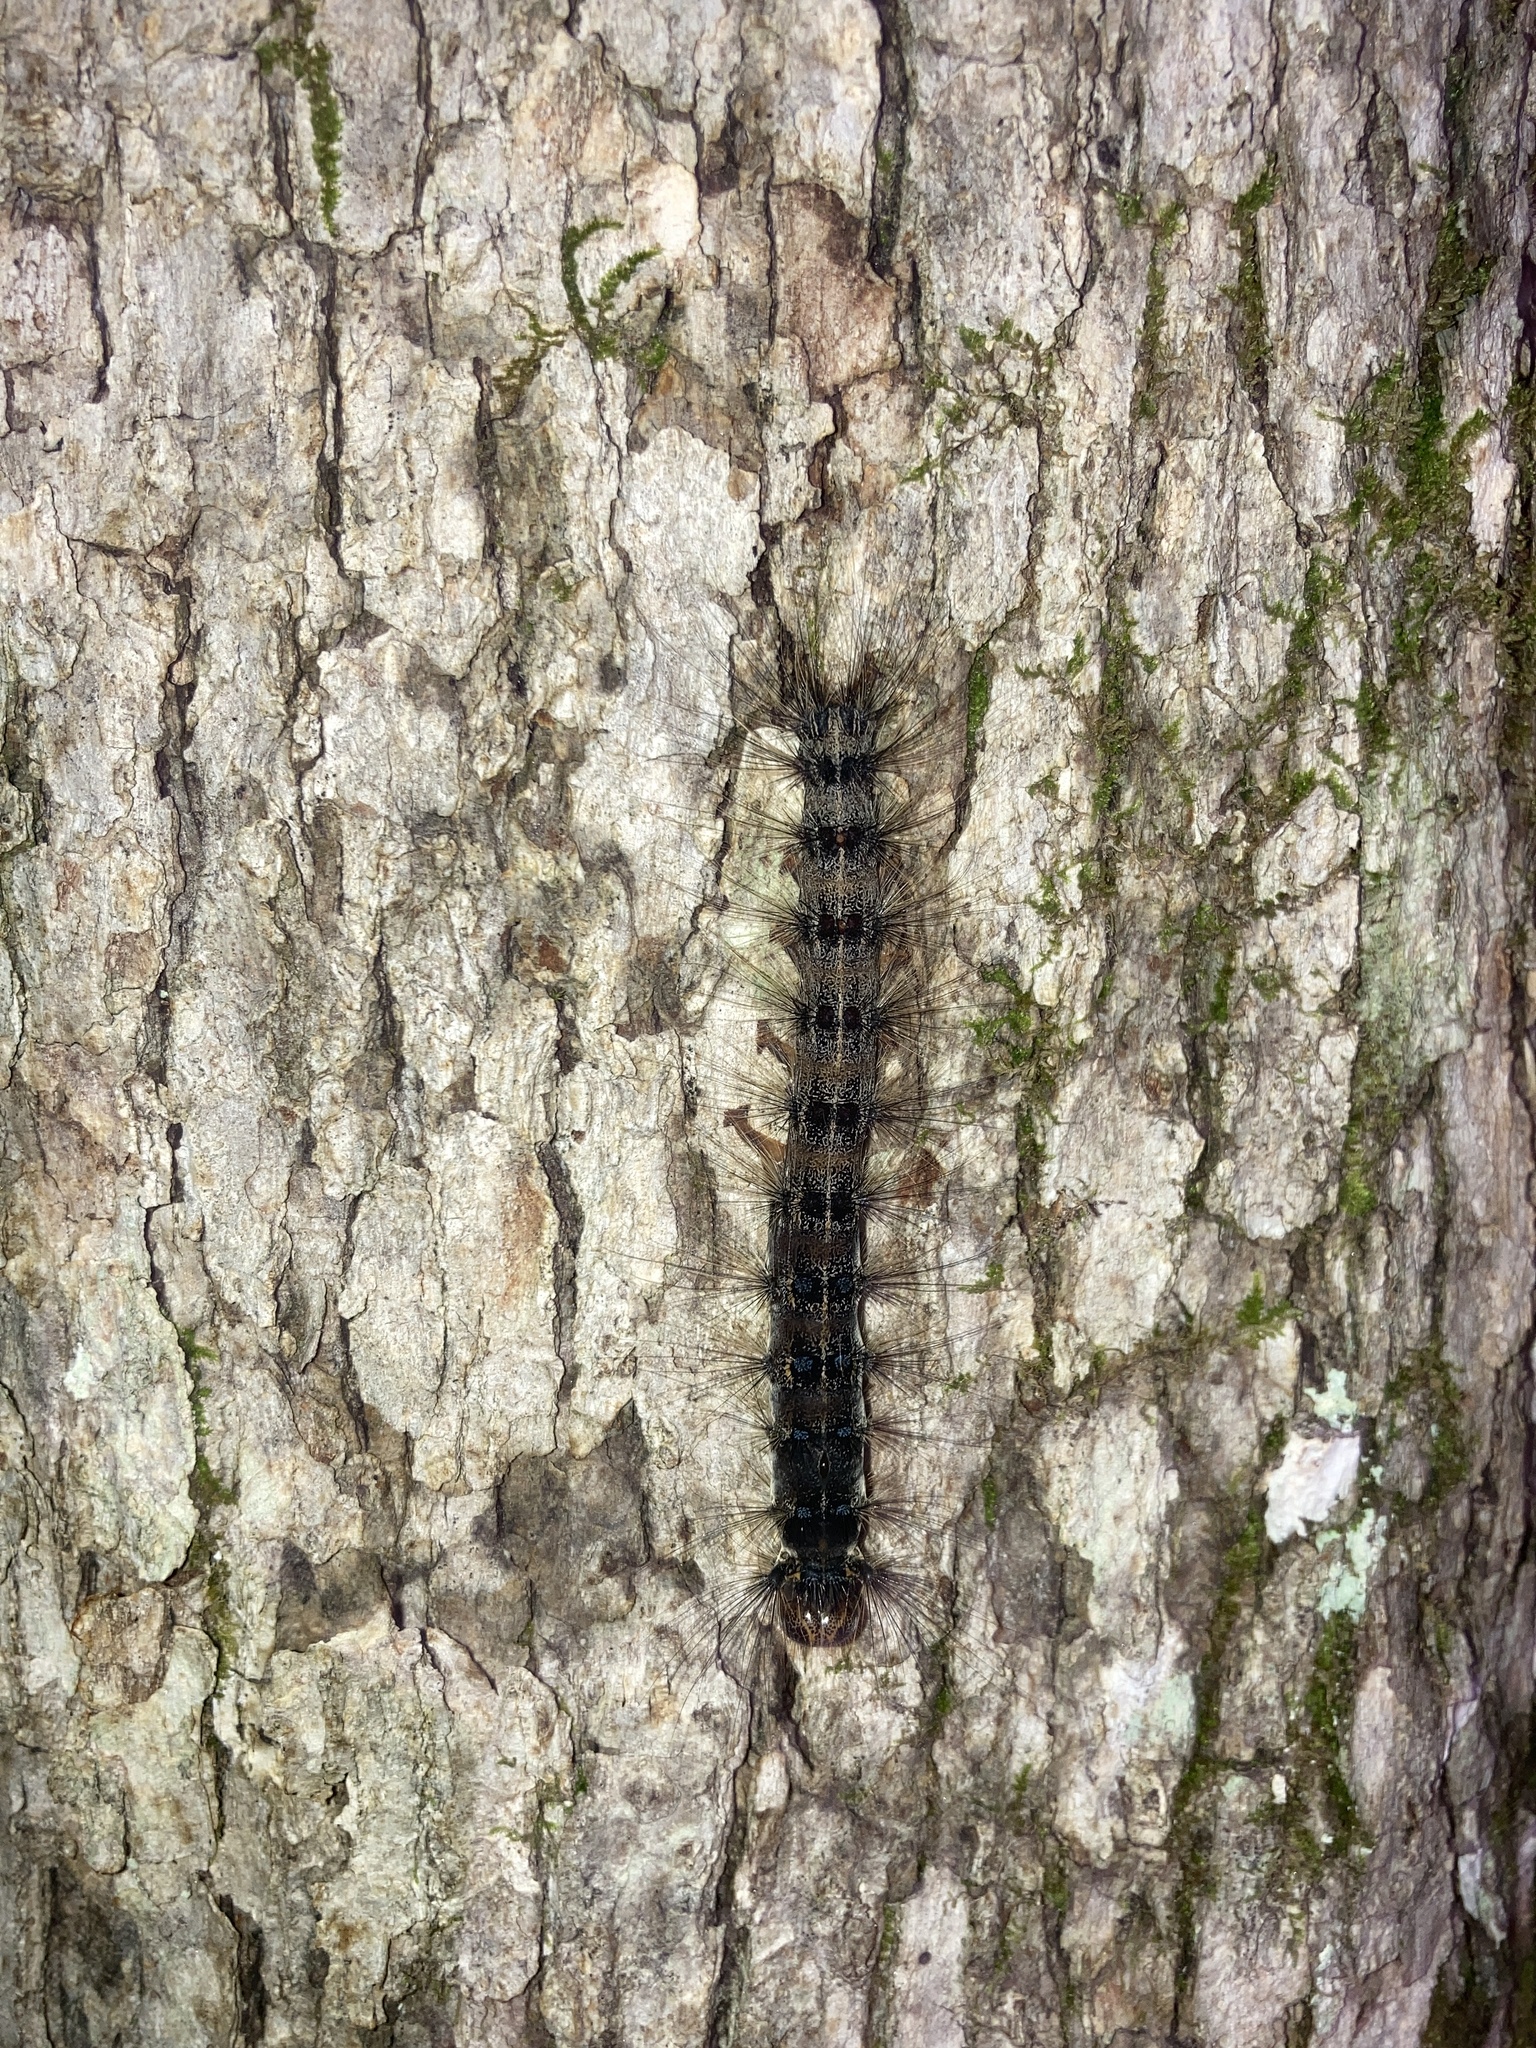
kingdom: Animalia
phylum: Arthropoda
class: Insecta
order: Lepidoptera
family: Erebidae
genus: Lymantria
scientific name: Lymantria dispar
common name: Gypsy moth
